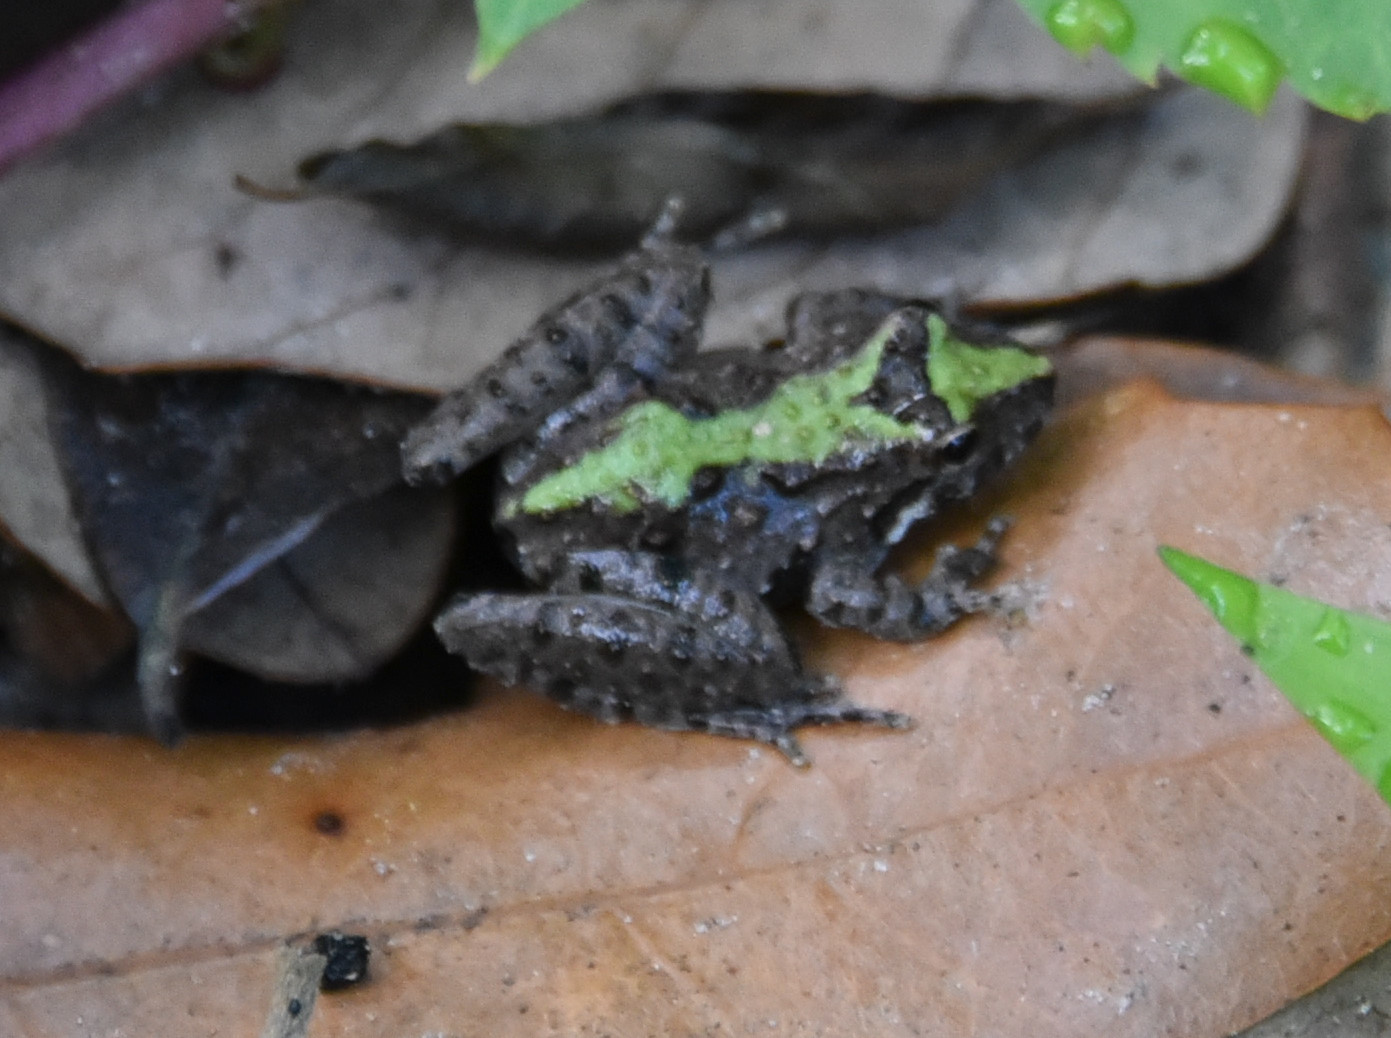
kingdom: Animalia
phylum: Chordata
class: Amphibia
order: Anura
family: Hylidae
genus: Acris
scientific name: Acris blanchardi
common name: Blanchard's cricket frog
